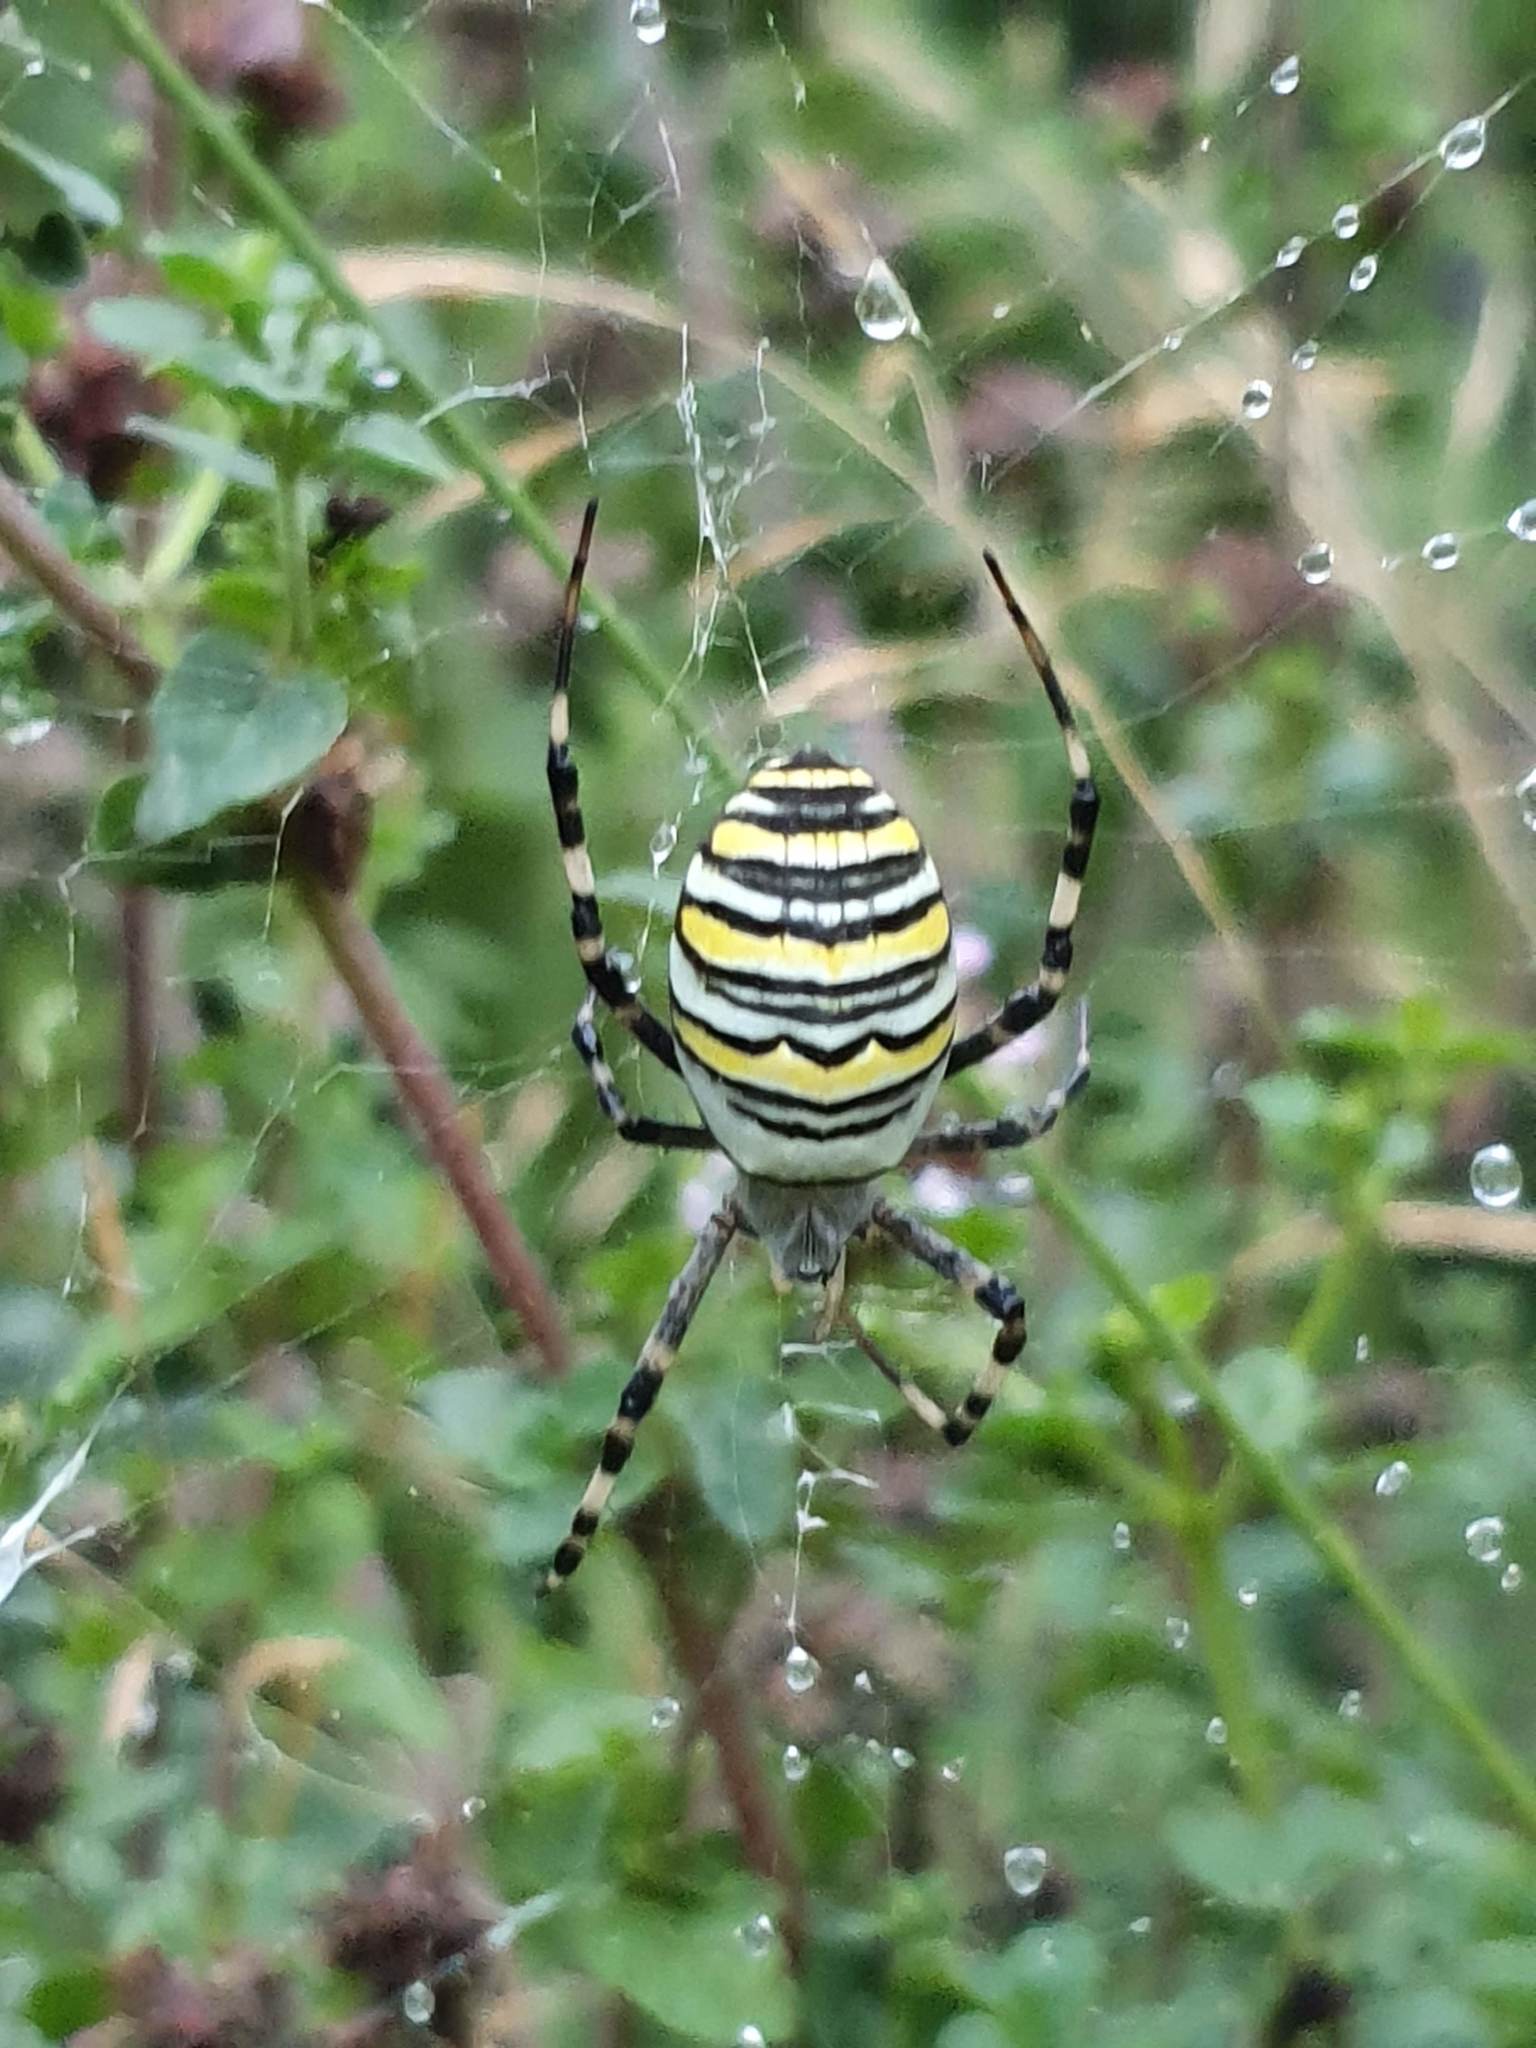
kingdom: Animalia
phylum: Arthropoda
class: Arachnida
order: Araneae
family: Araneidae
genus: Argiope
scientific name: Argiope bruennichi
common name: Wasp spider
